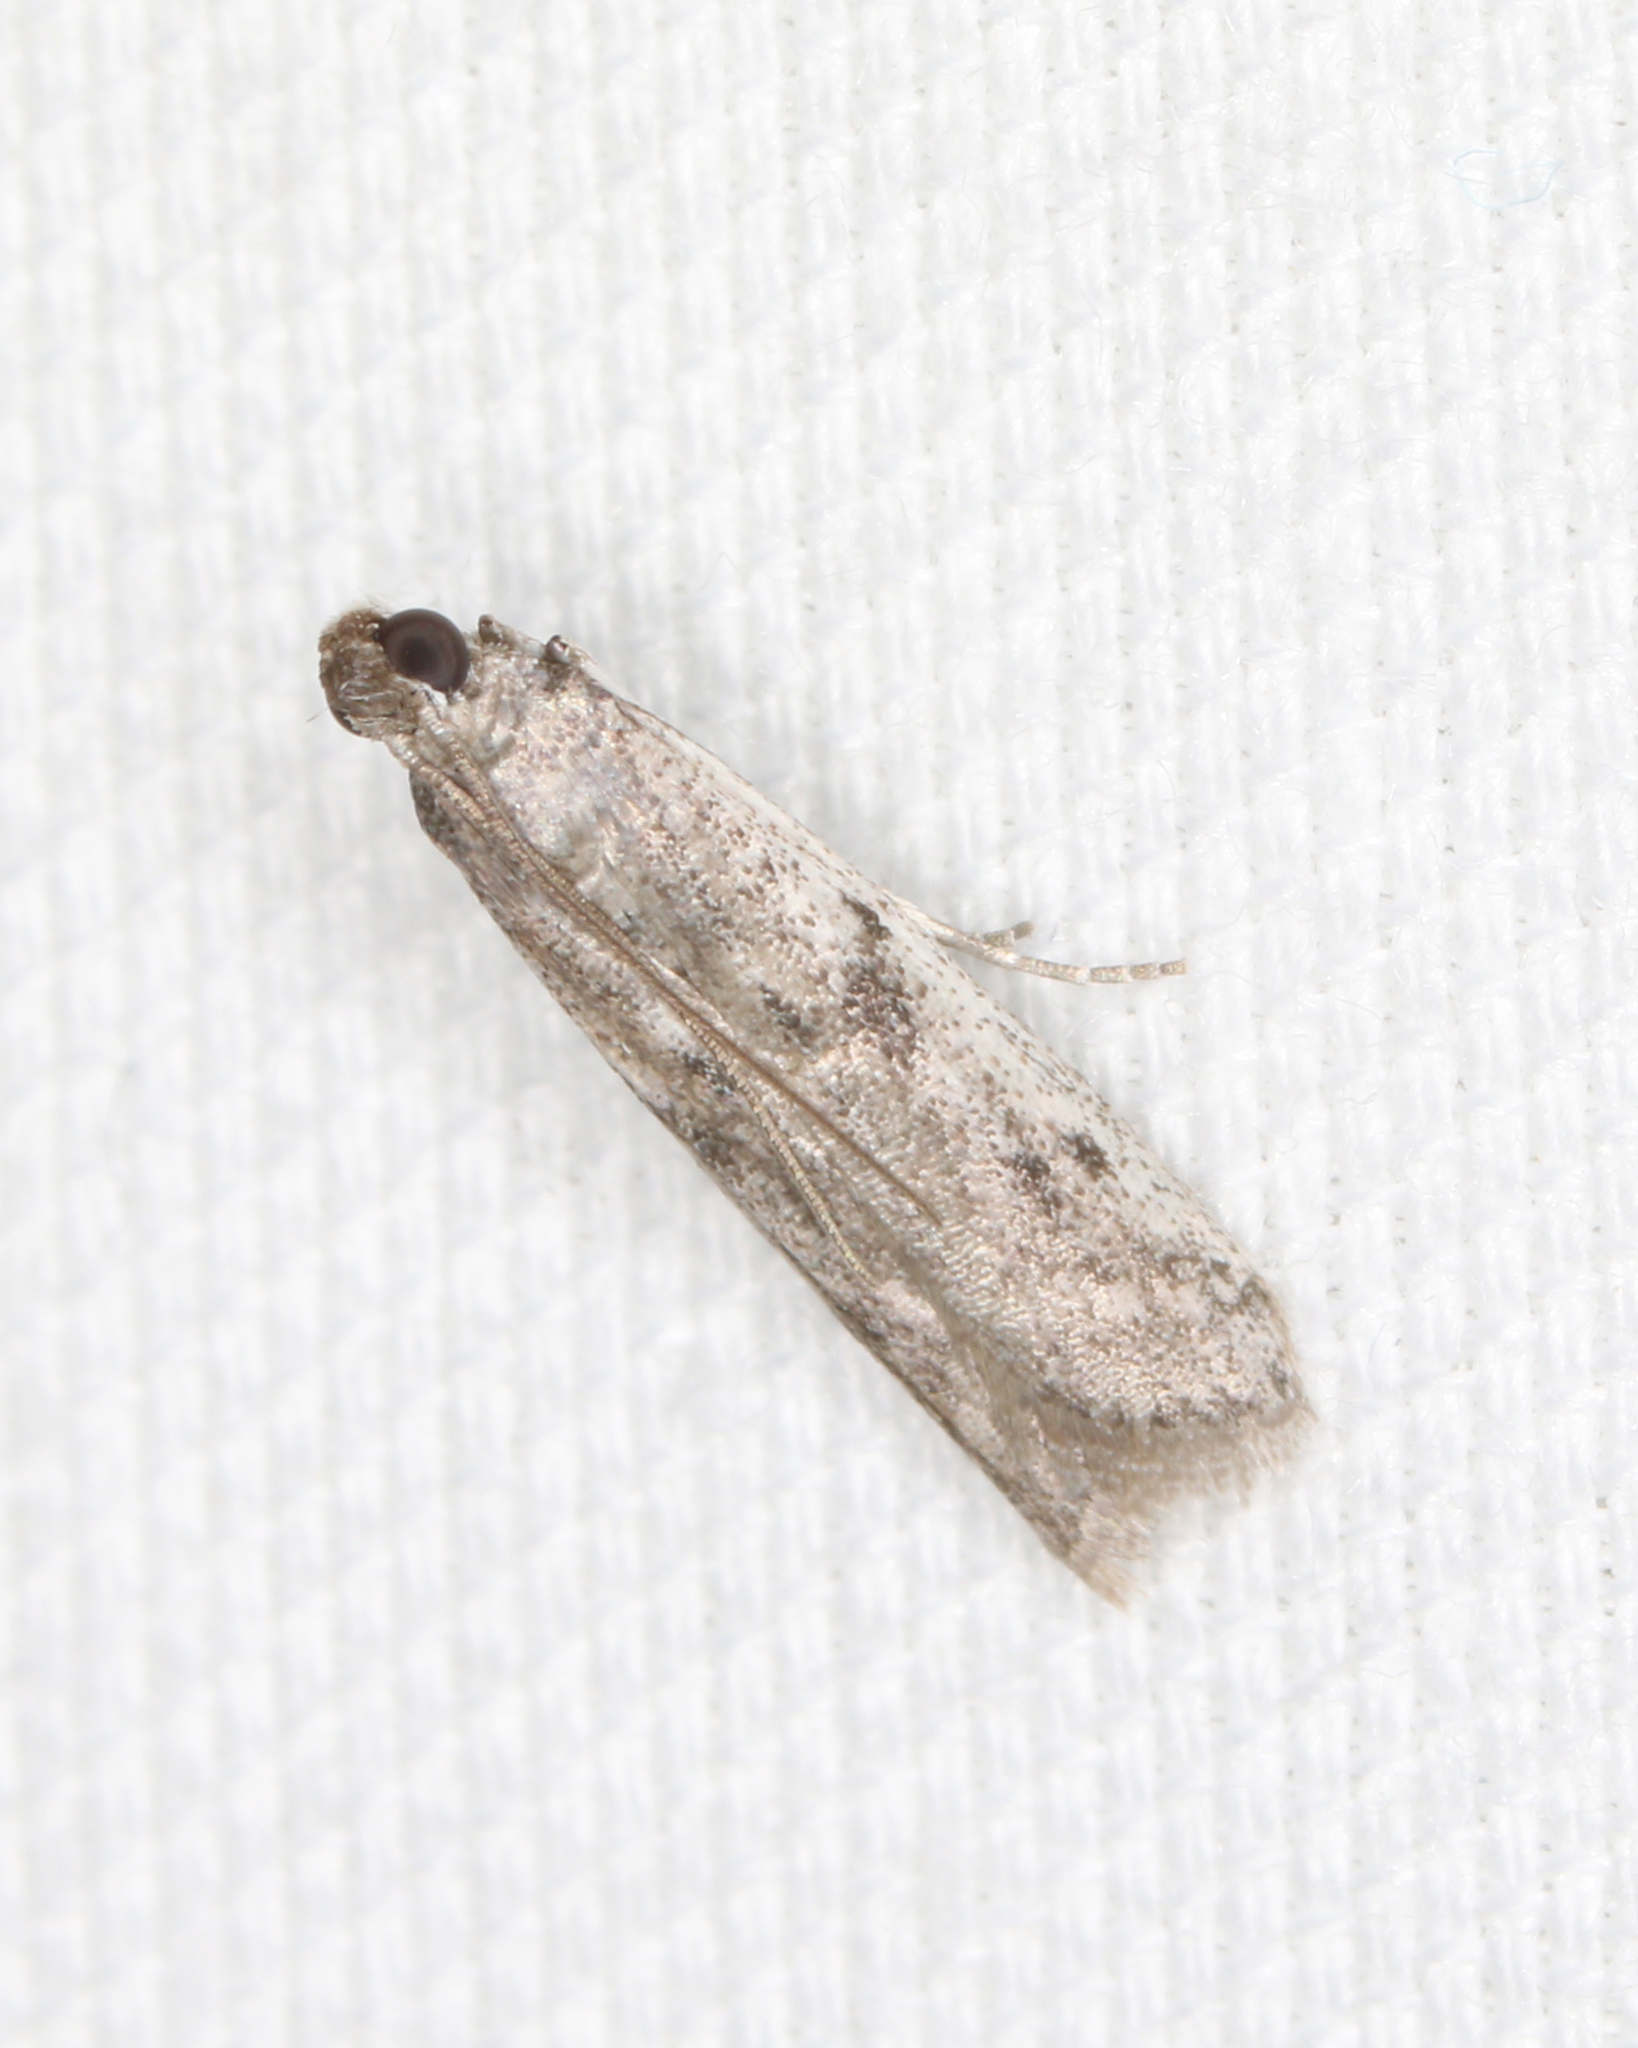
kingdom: Animalia
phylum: Arthropoda
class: Insecta
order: Lepidoptera
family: Pyralidae
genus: Phycitodes
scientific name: Phycitodes mucidellus
